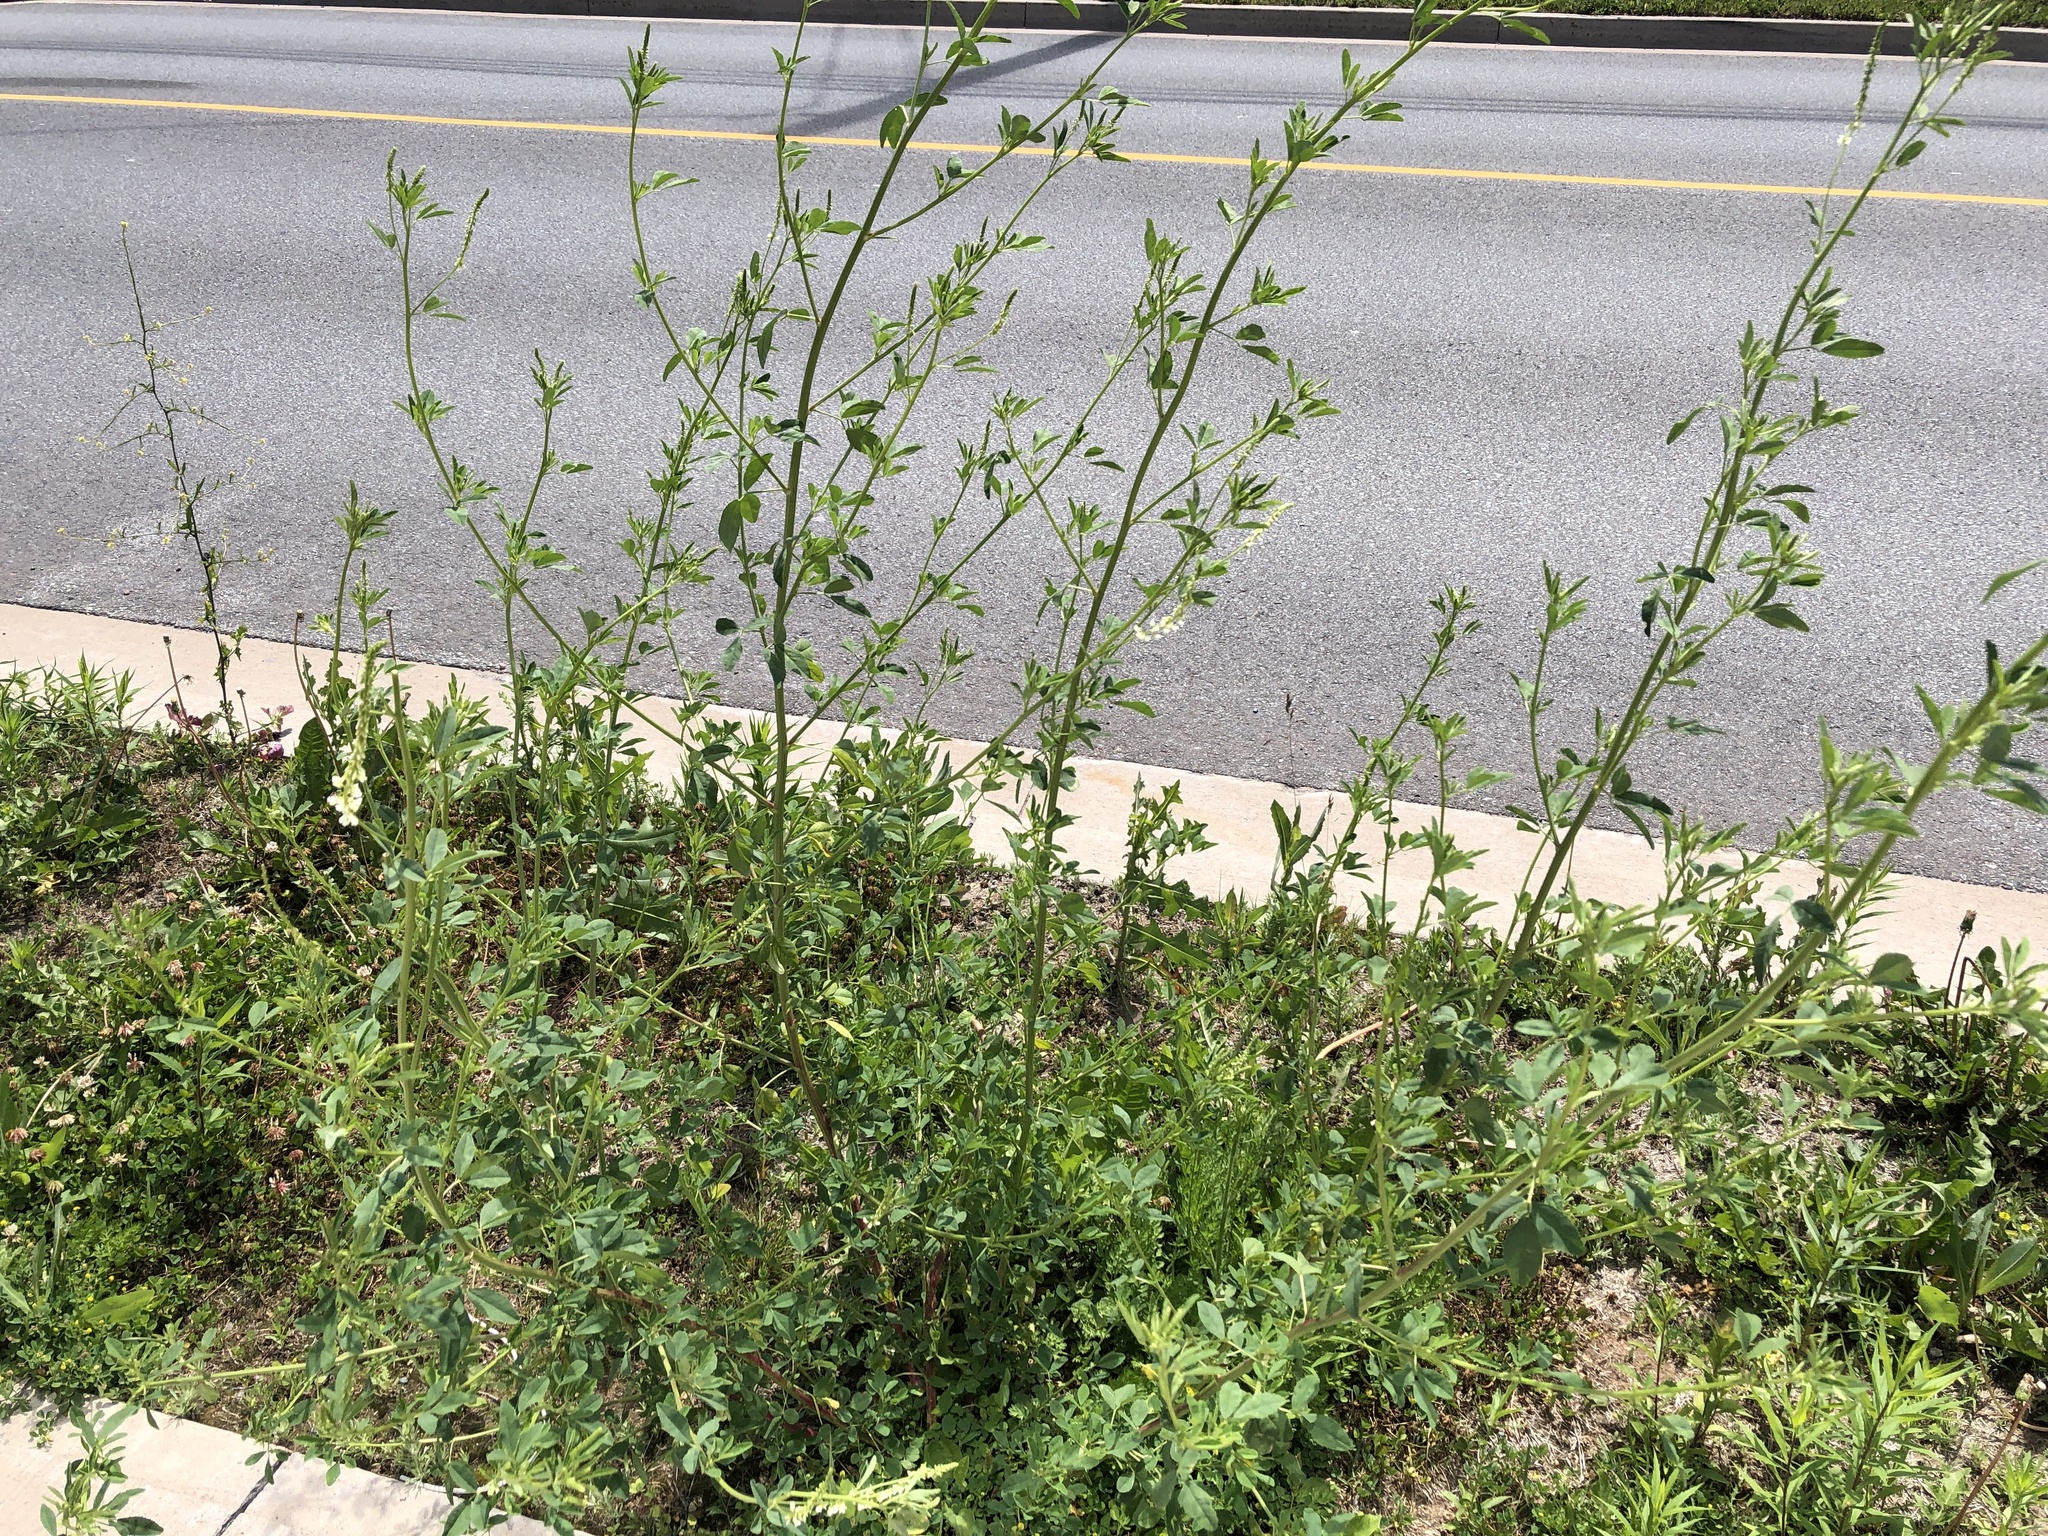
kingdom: Plantae
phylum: Tracheophyta
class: Magnoliopsida
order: Fabales
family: Fabaceae
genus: Melilotus
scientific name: Melilotus albus
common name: White melilot
